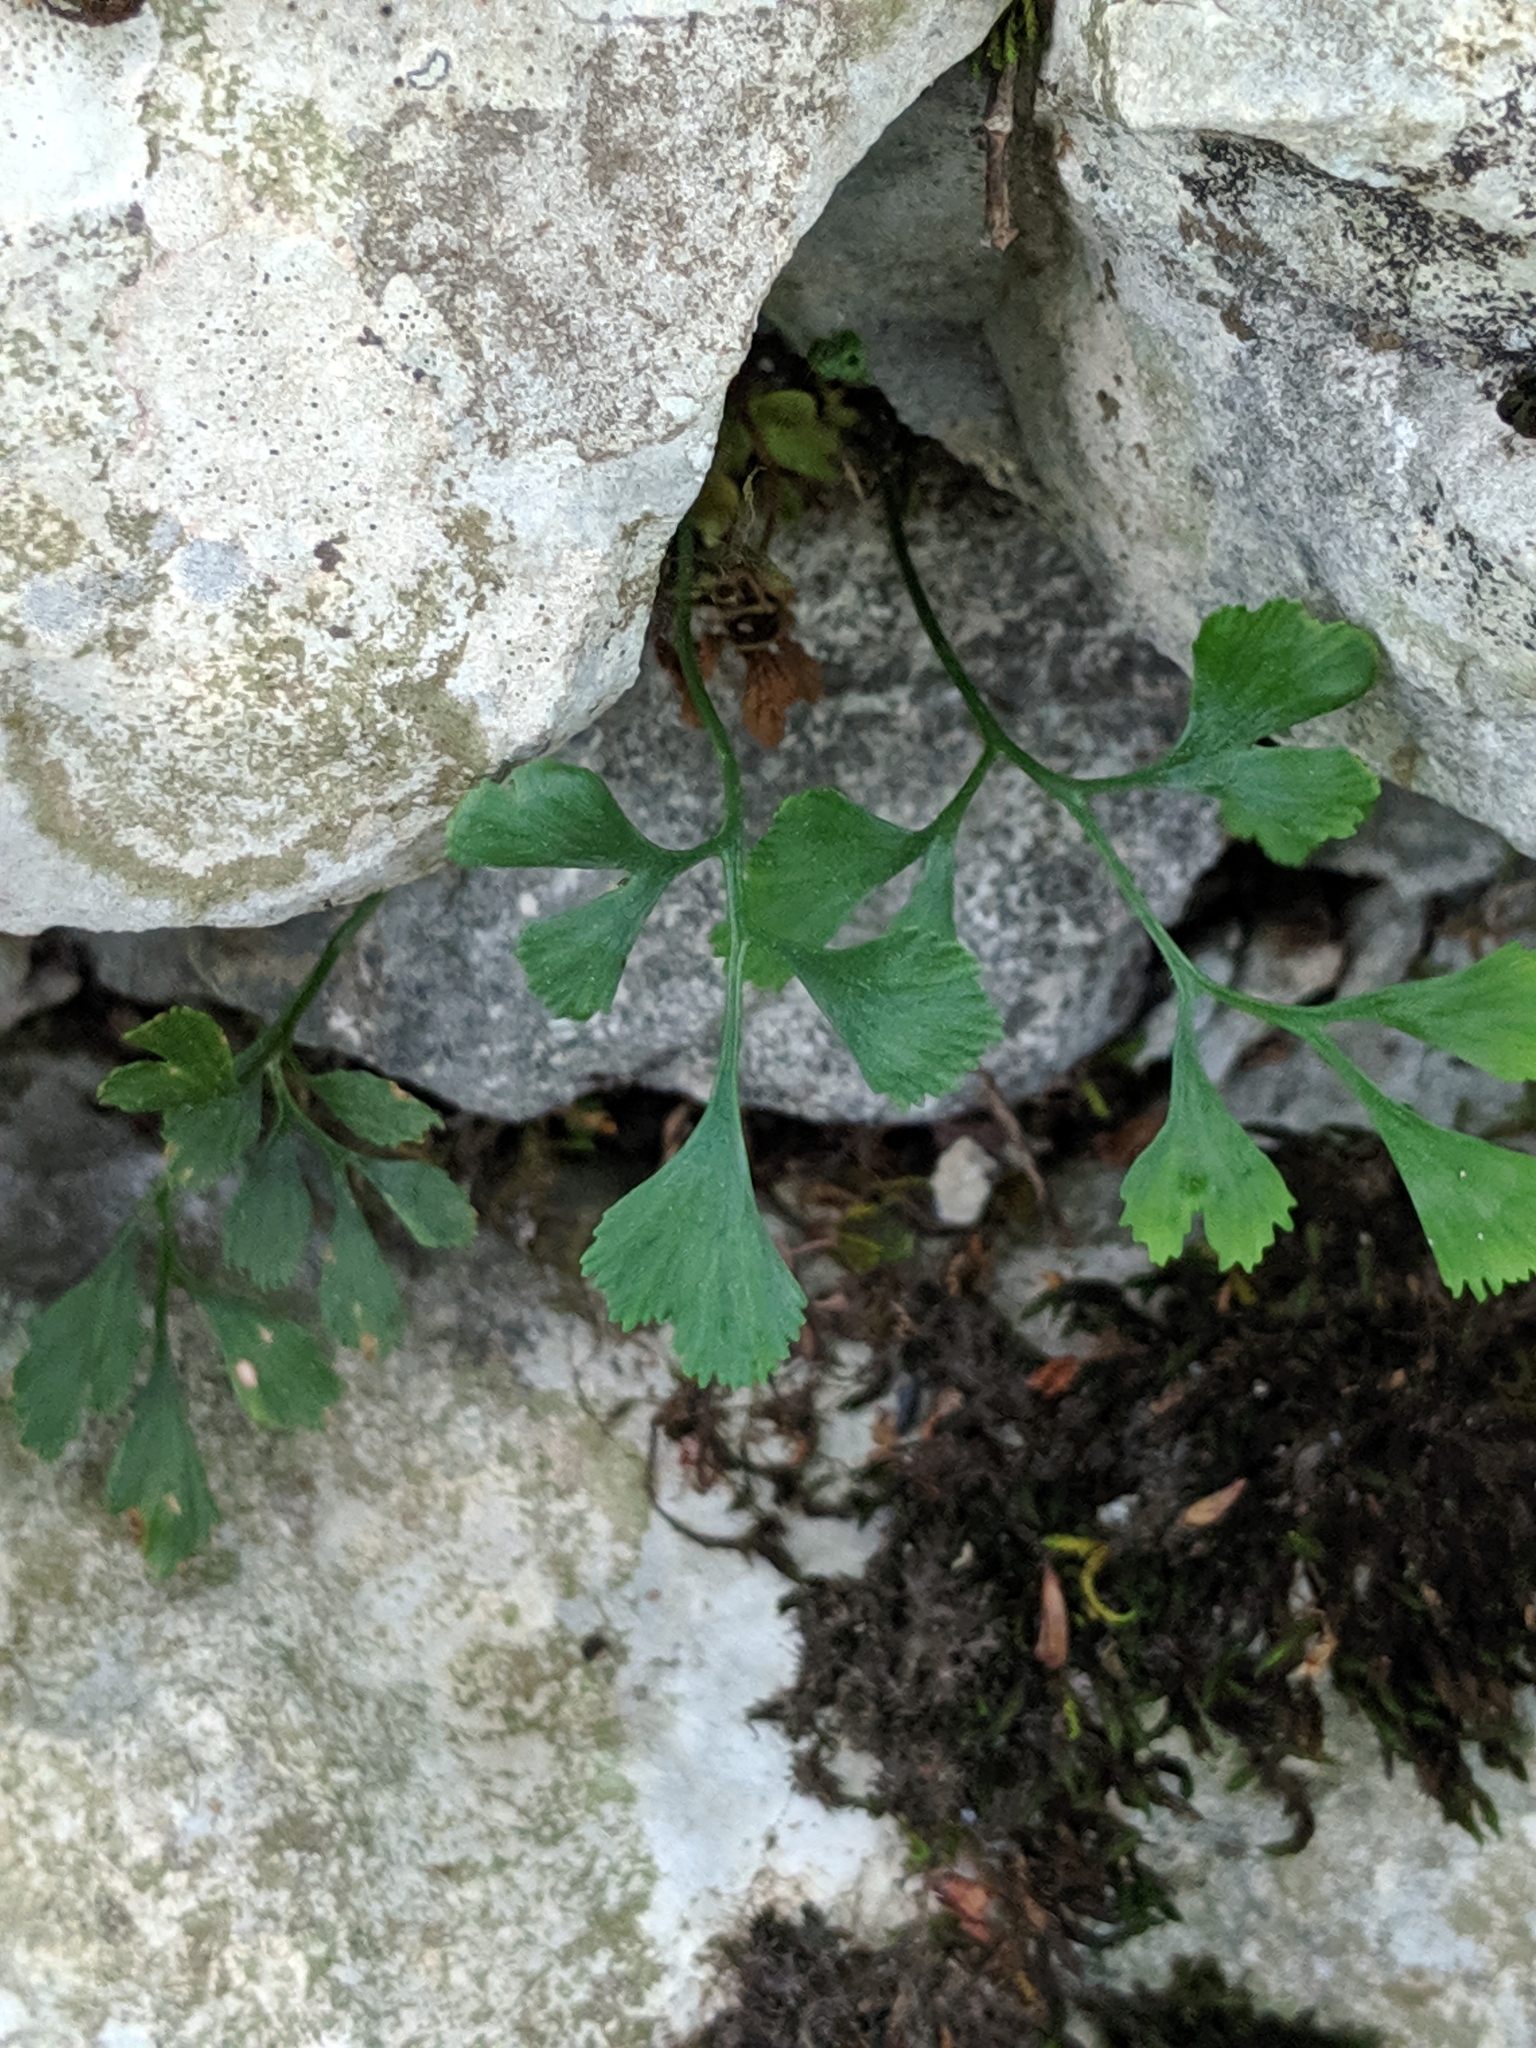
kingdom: Plantae
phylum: Tracheophyta
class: Polypodiopsida
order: Polypodiales
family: Aspleniaceae
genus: Asplenium
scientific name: Asplenium ruta-muraria
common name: Wall-rue
